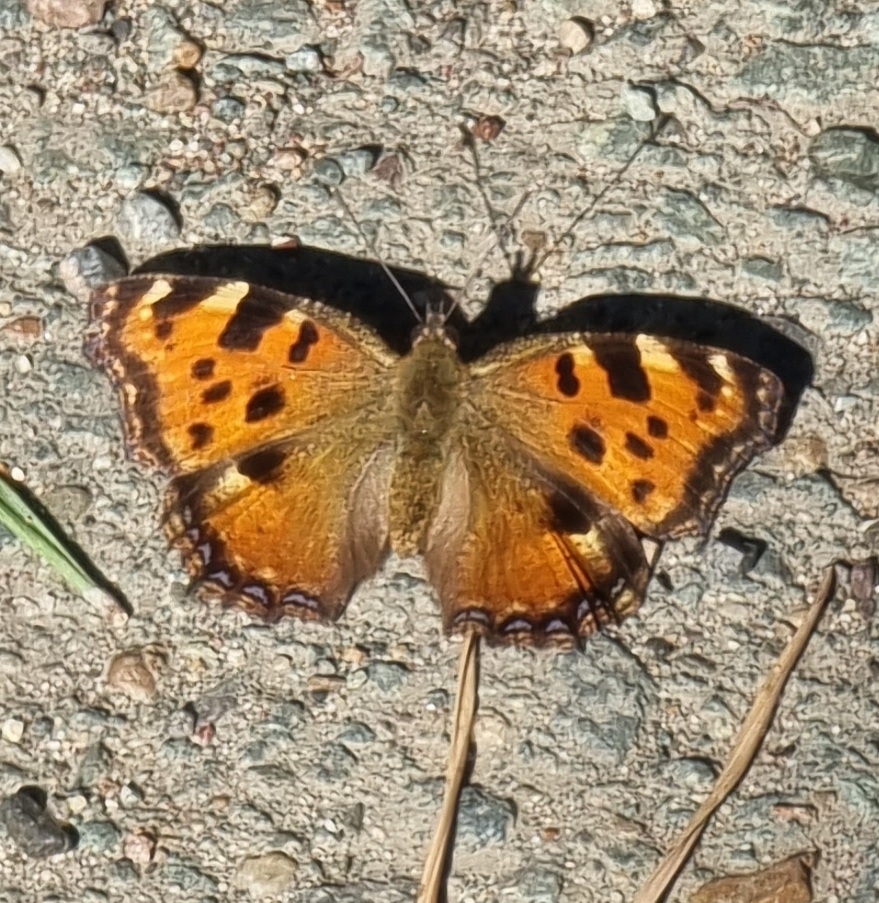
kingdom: Animalia
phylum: Arthropoda
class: Insecta
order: Lepidoptera
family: Nymphalidae
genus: Nymphalis
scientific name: Nymphalis polychloros
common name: Large tortoiseshell
